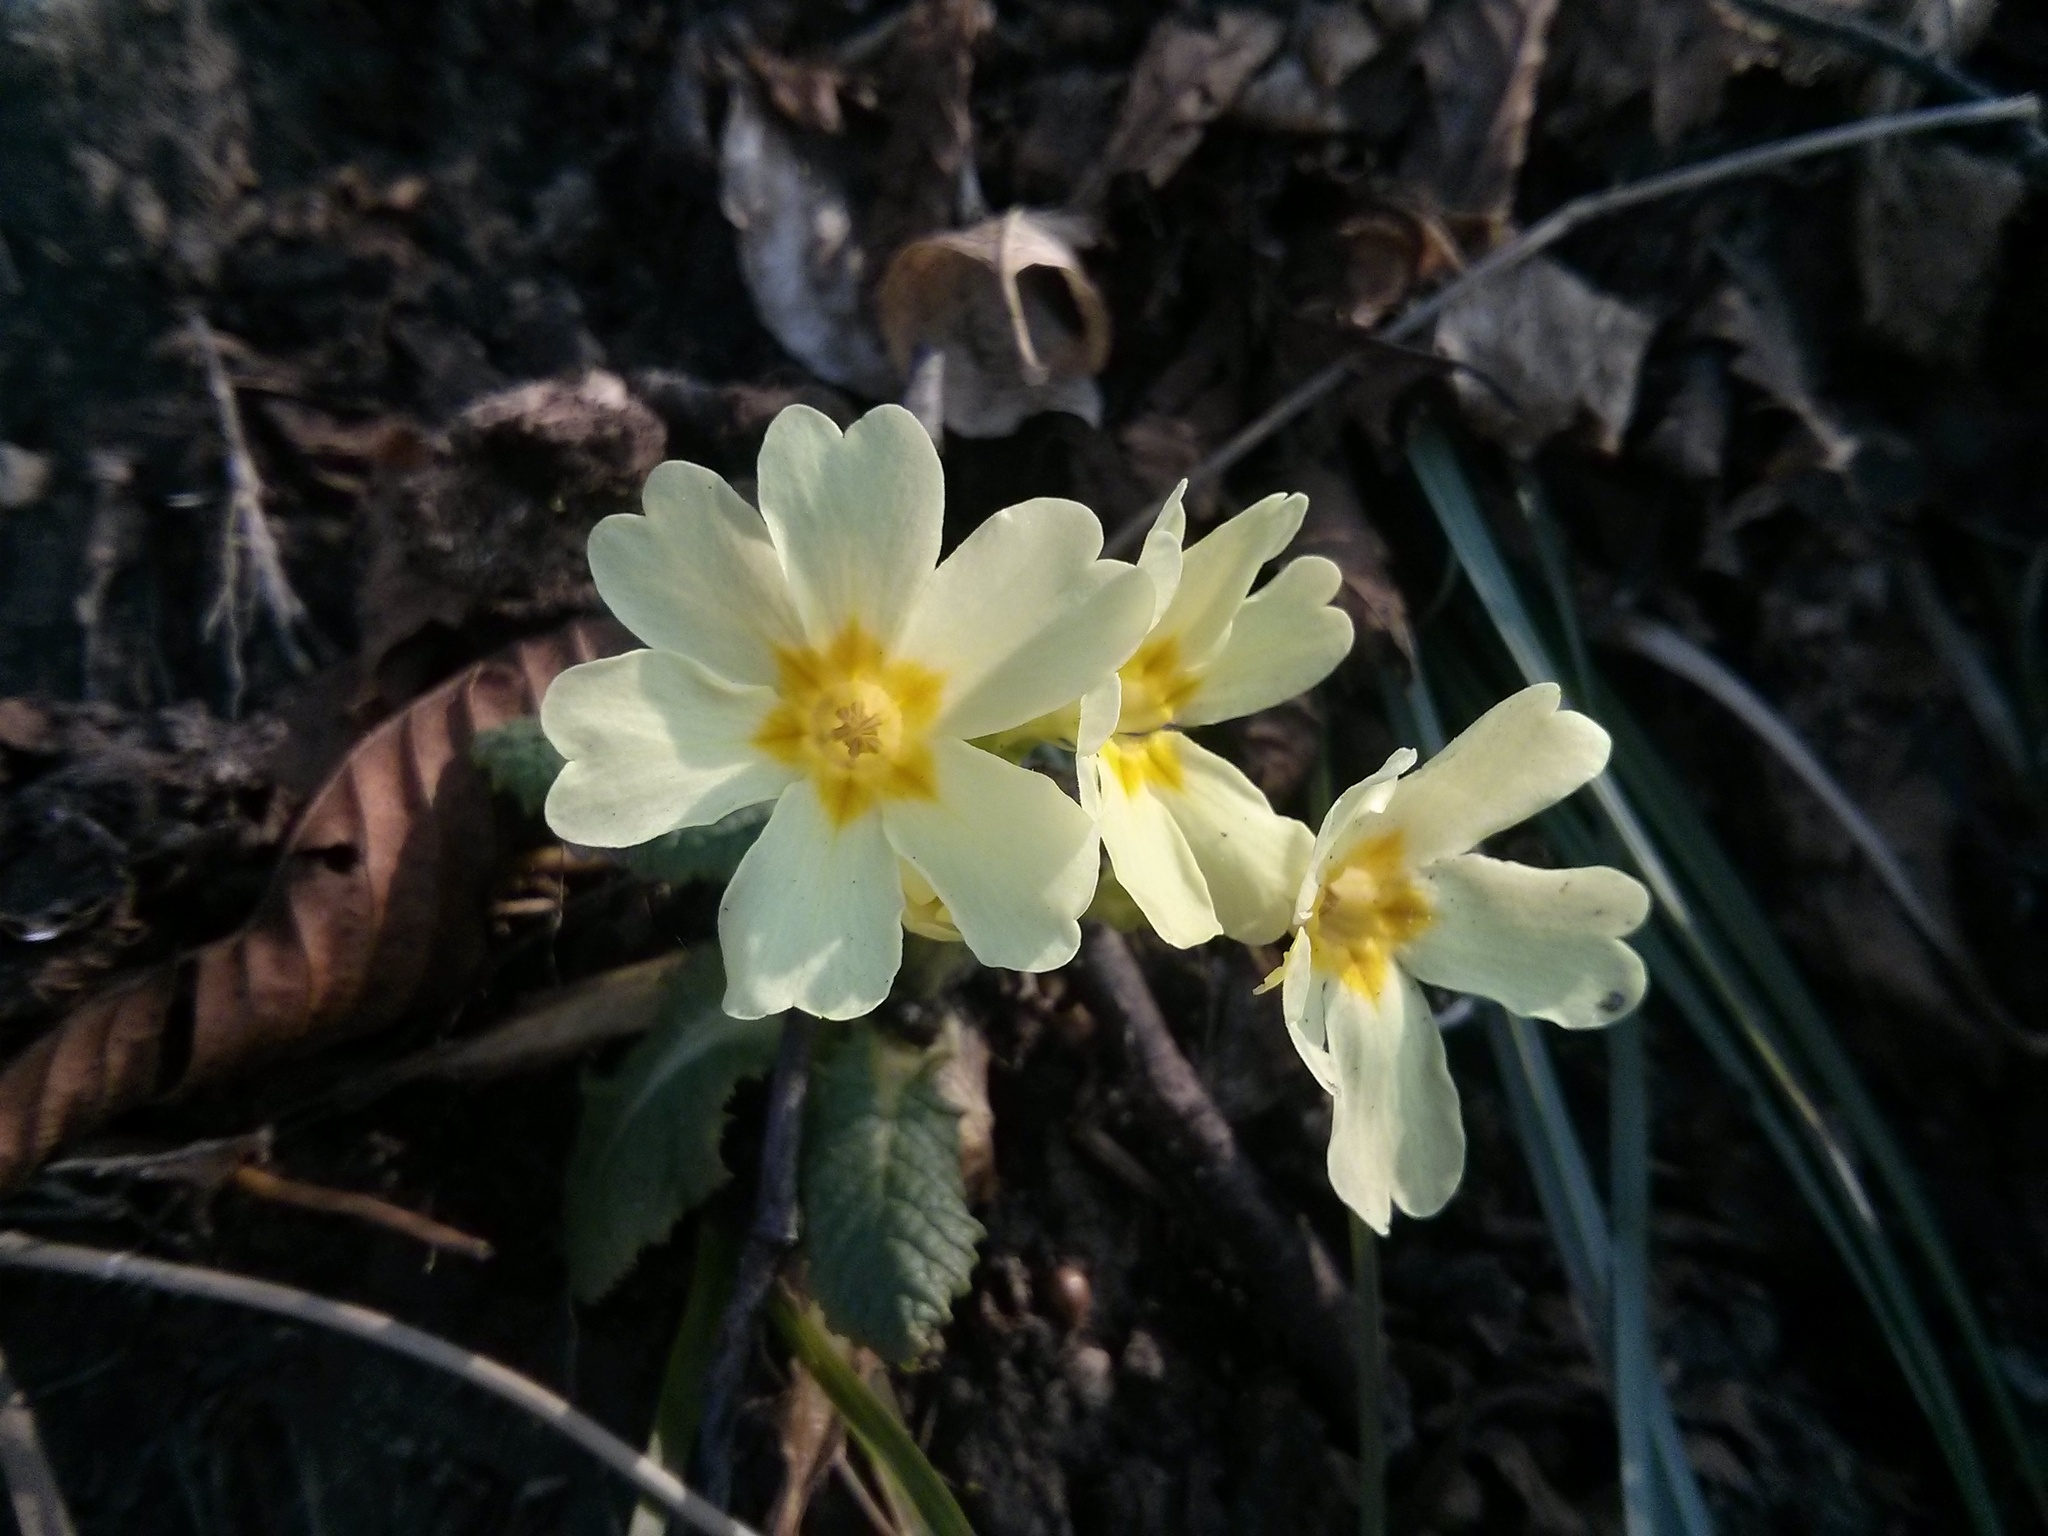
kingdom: Plantae
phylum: Tracheophyta
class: Magnoliopsida
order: Ericales
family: Primulaceae
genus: Primula
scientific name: Primula vulgaris
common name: Primrose
